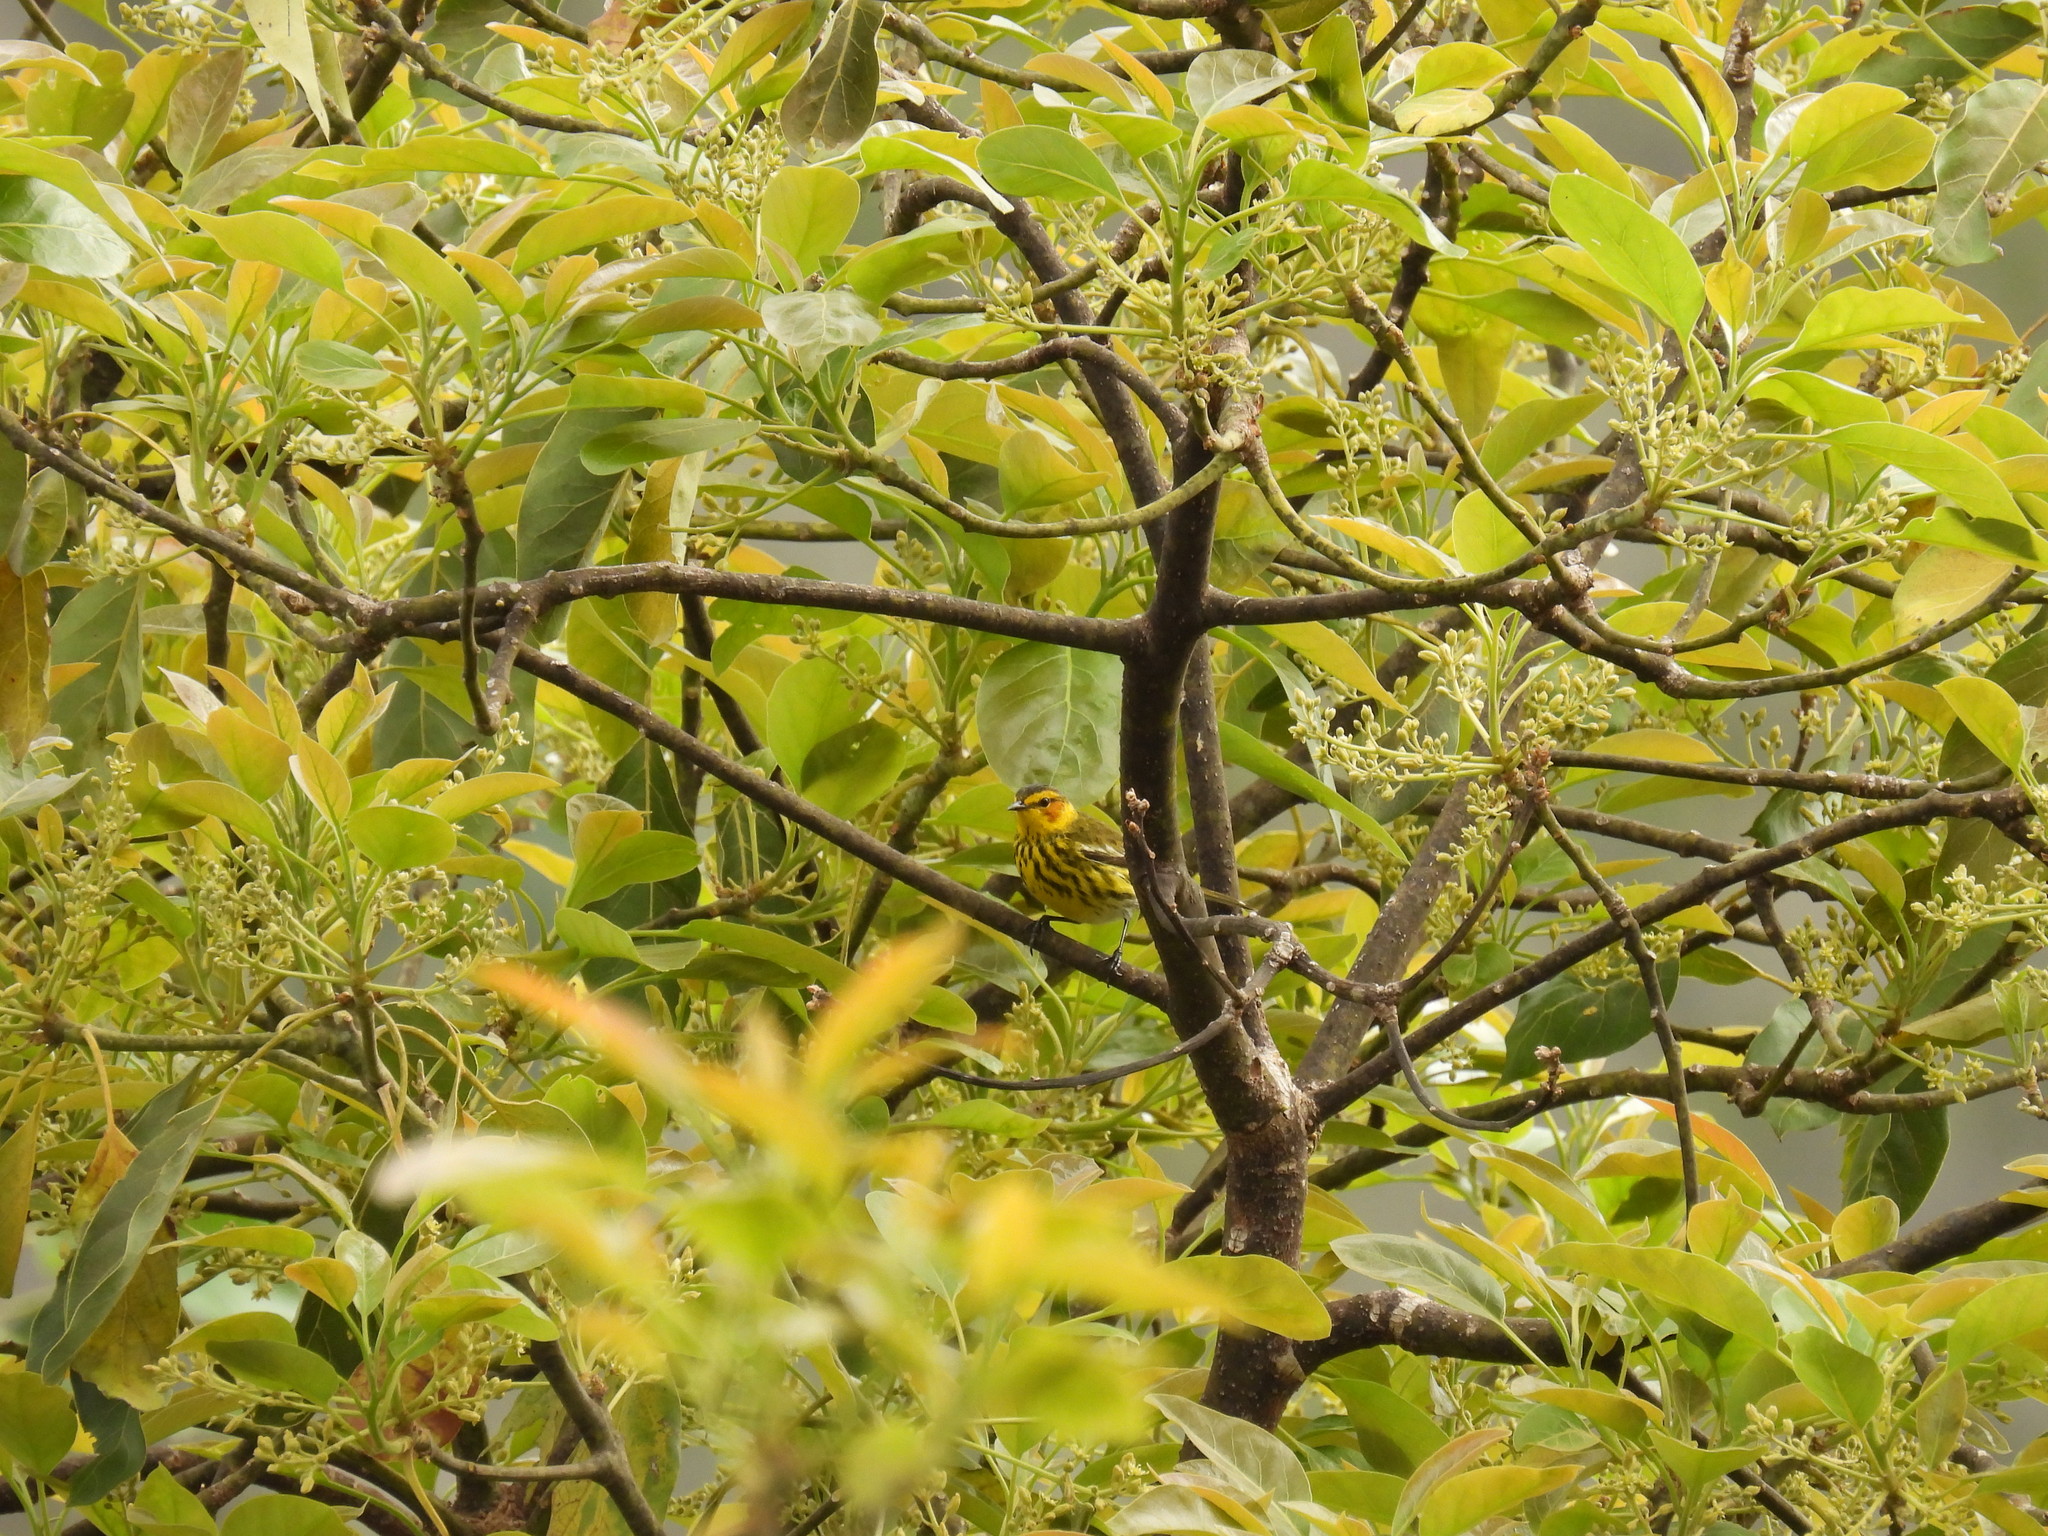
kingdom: Animalia
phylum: Chordata
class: Aves
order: Passeriformes
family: Parulidae
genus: Setophaga
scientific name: Setophaga tigrina
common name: Cape may warbler
